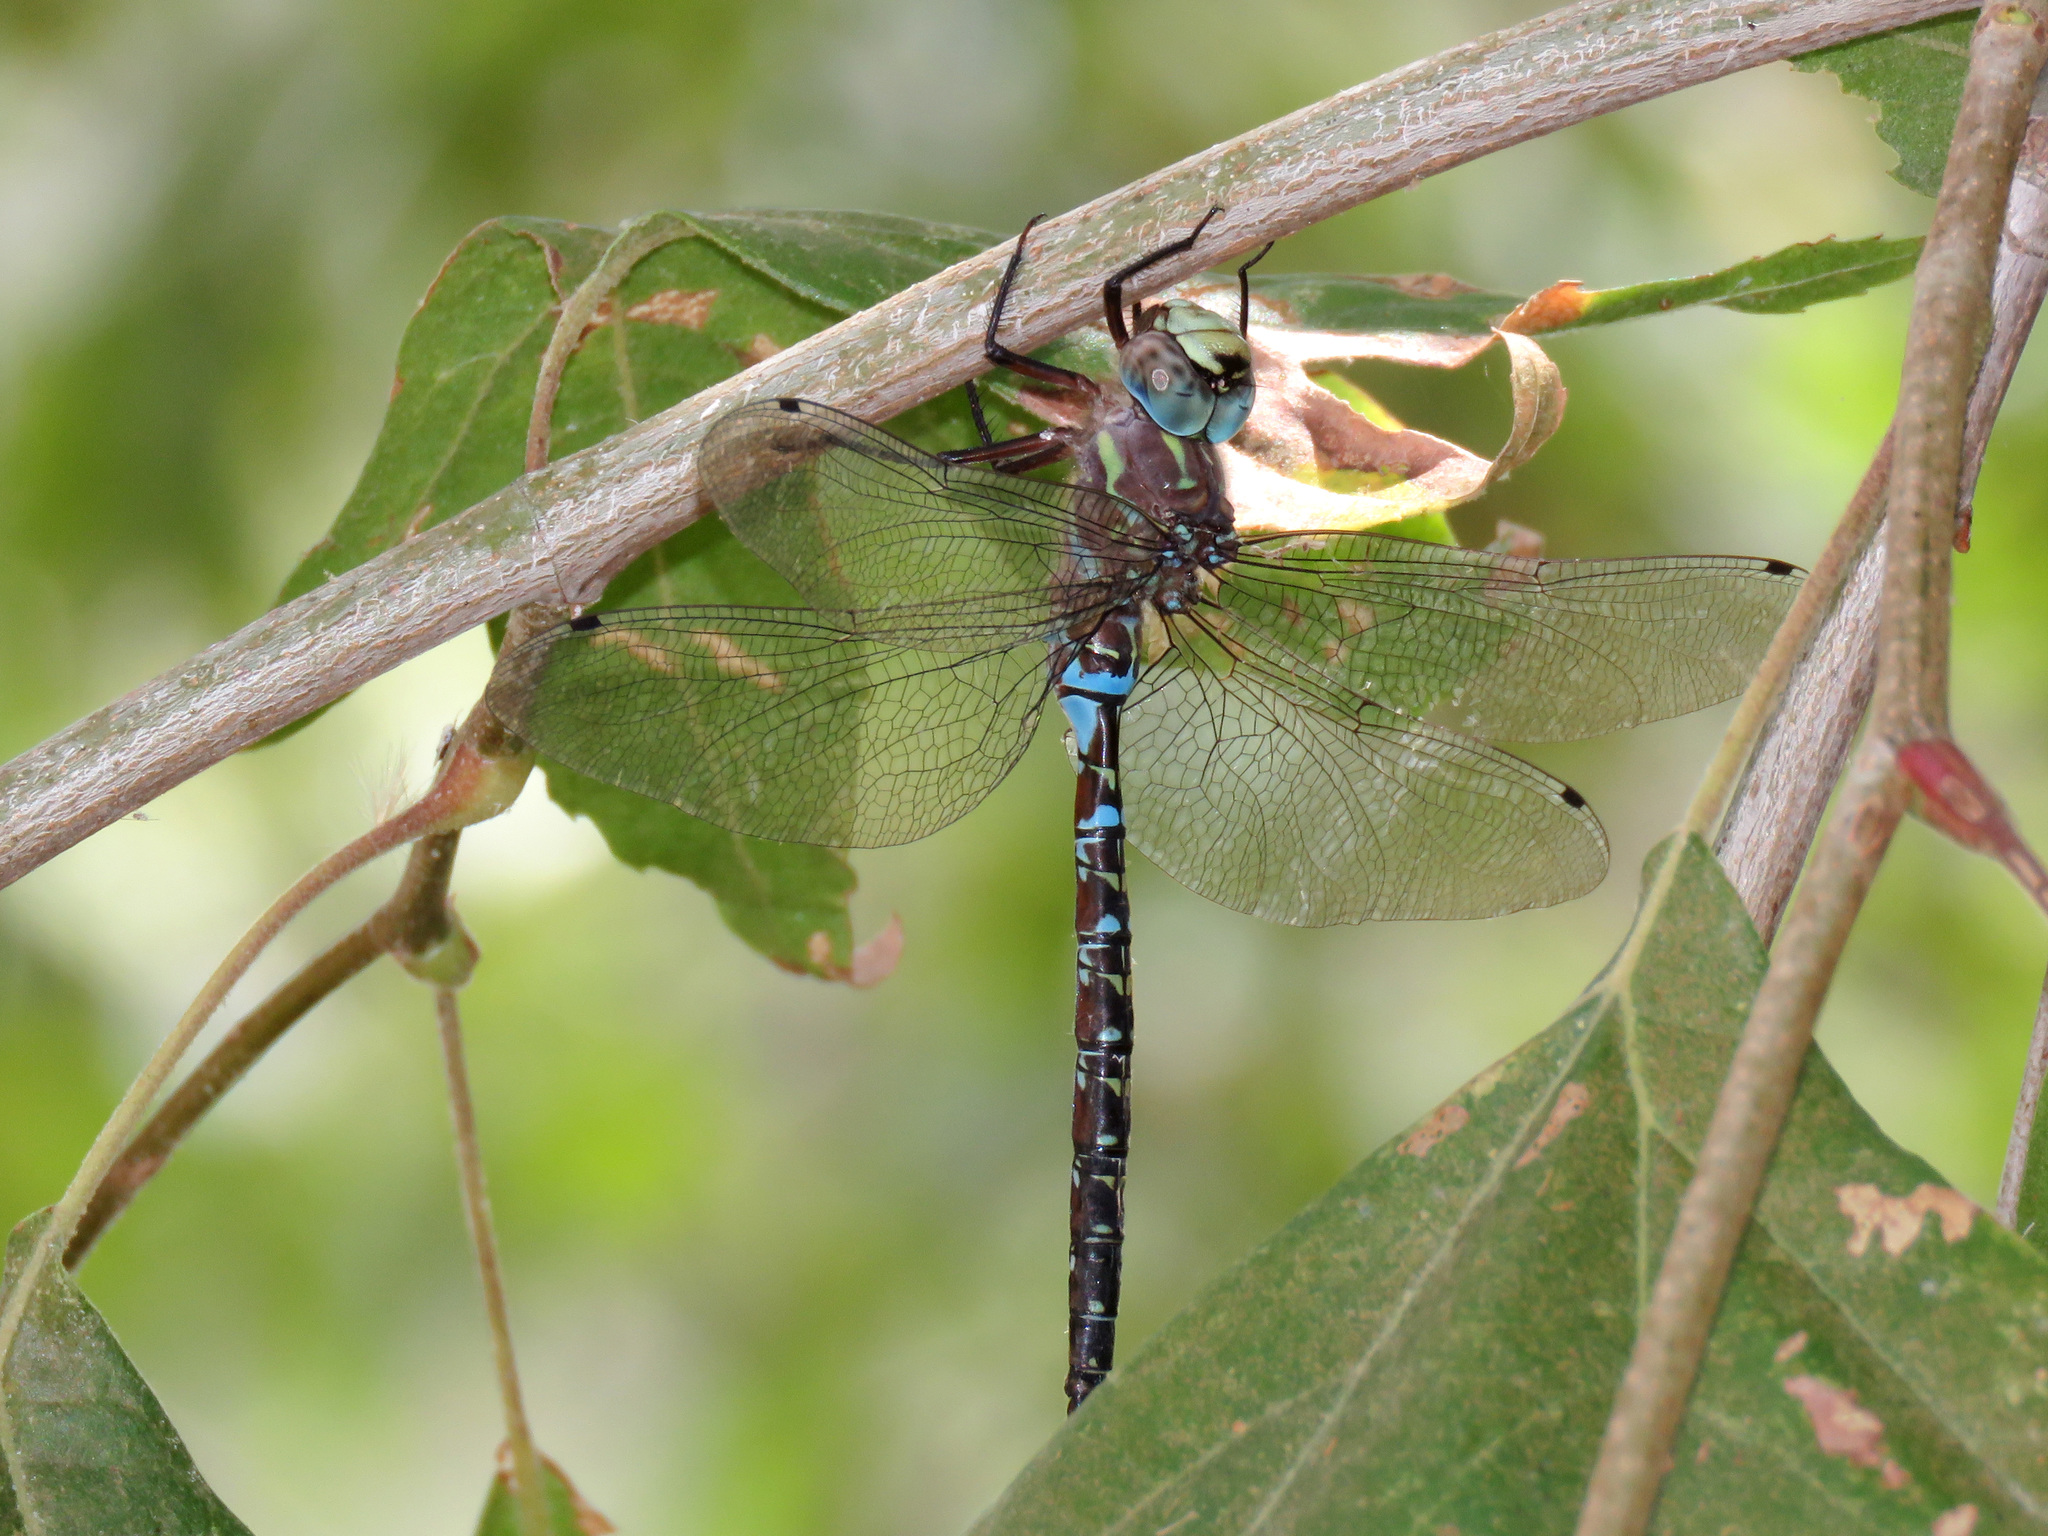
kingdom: Animalia
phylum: Arthropoda
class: Insecta
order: Odonata
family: Aeshnidae
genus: Oplonaeschna
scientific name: Oplonaeschna armata
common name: Riffle darner
